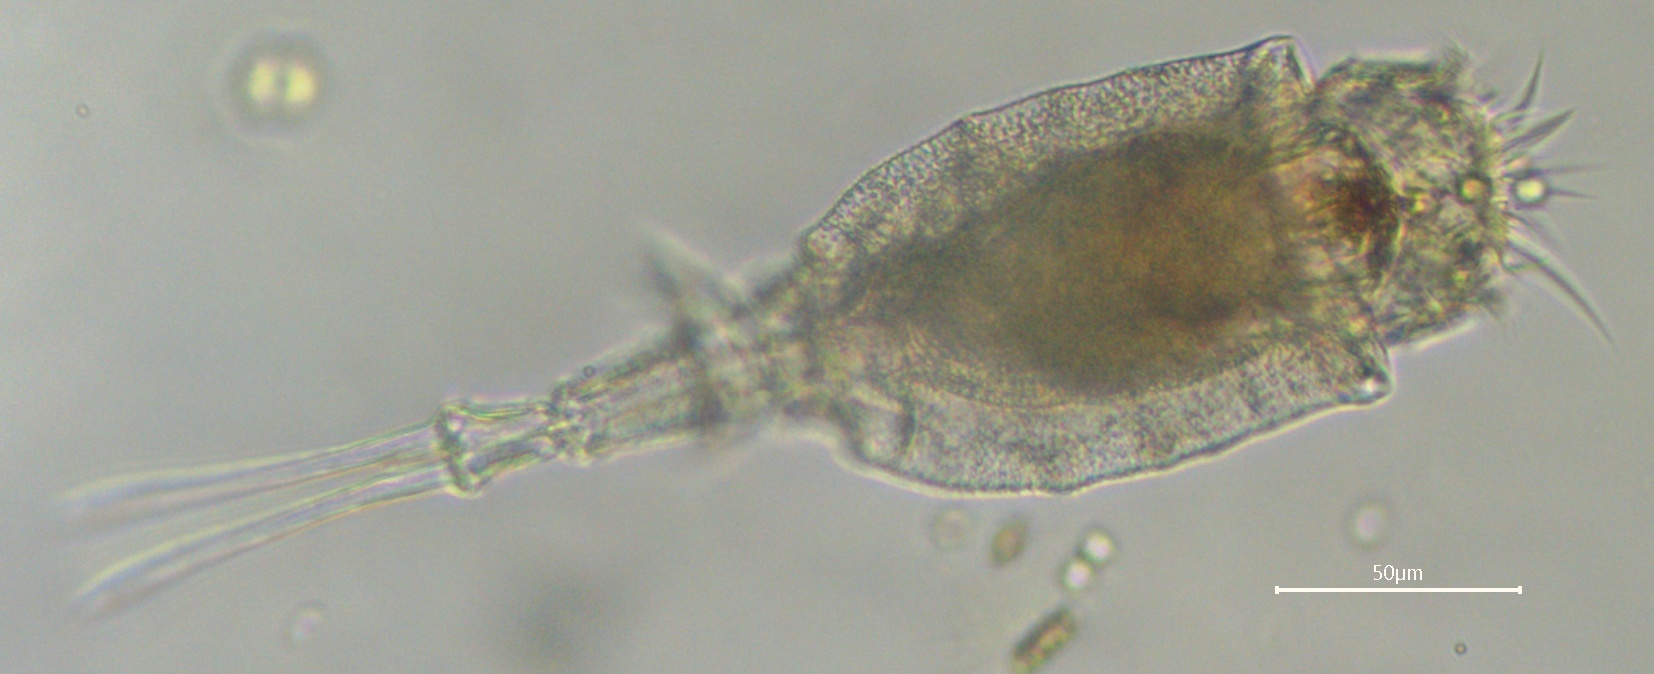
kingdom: Animalia
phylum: Rotifera
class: Eurotatoria
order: Ploima
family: Trichotriidae
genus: Trichotria
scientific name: Trichotria pocillum
